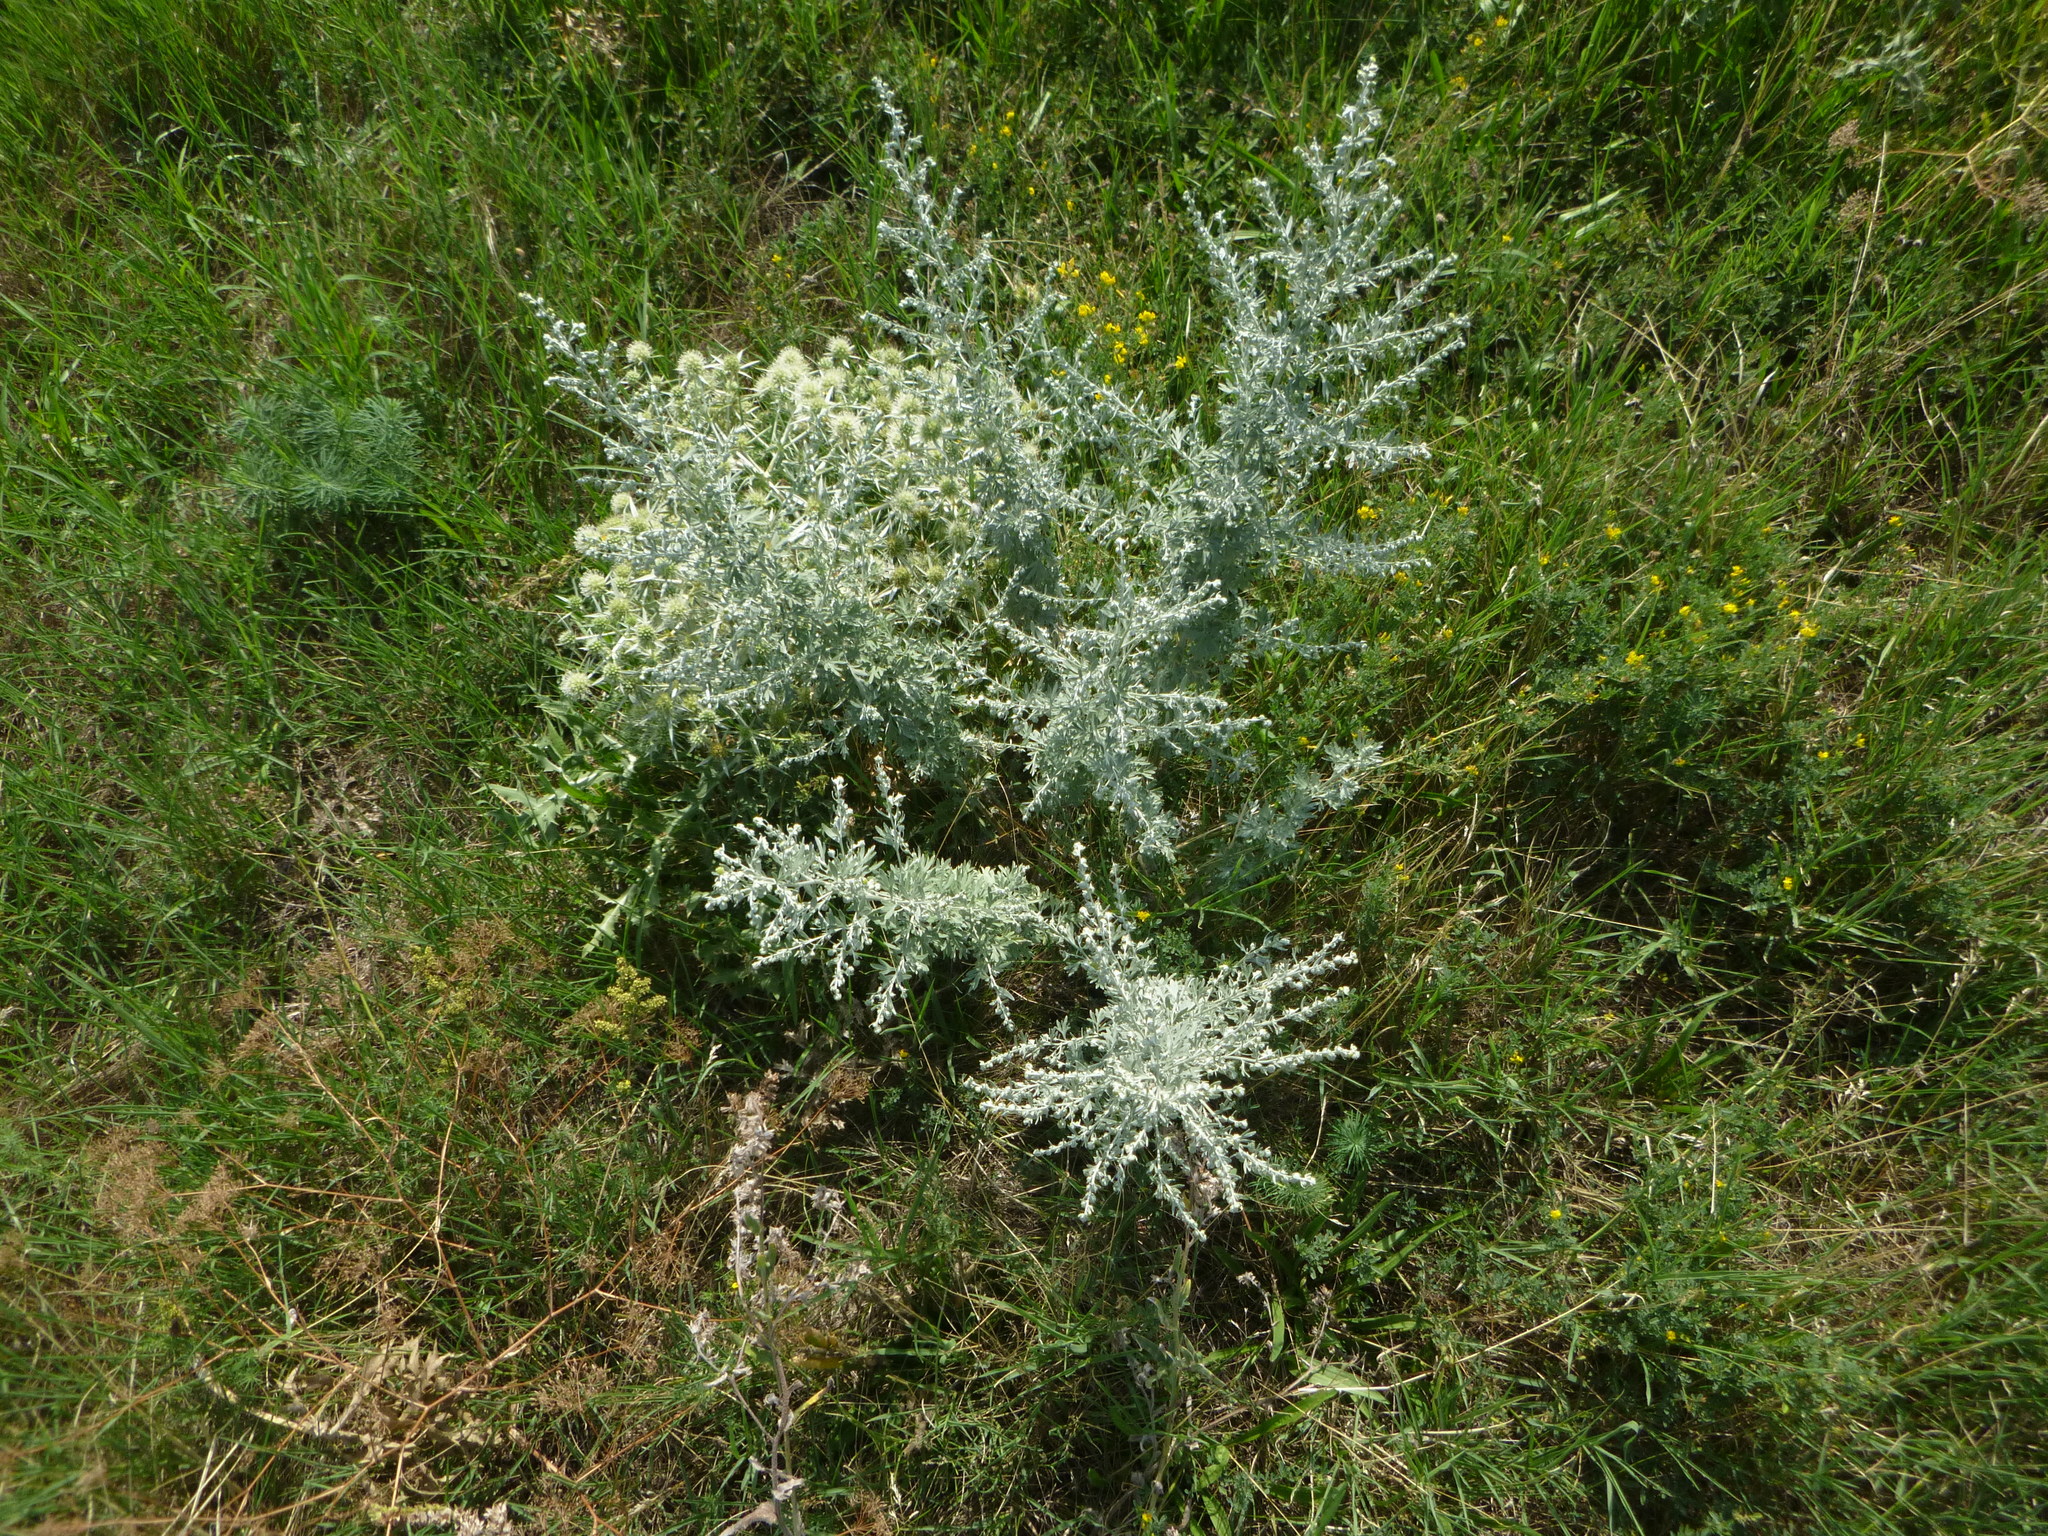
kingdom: Plantae
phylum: Tracheophyta
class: Magnoliopsida
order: Asterales
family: Asteraceae
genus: Artemisia
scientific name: Artemisia absinthium
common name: Wormwood
